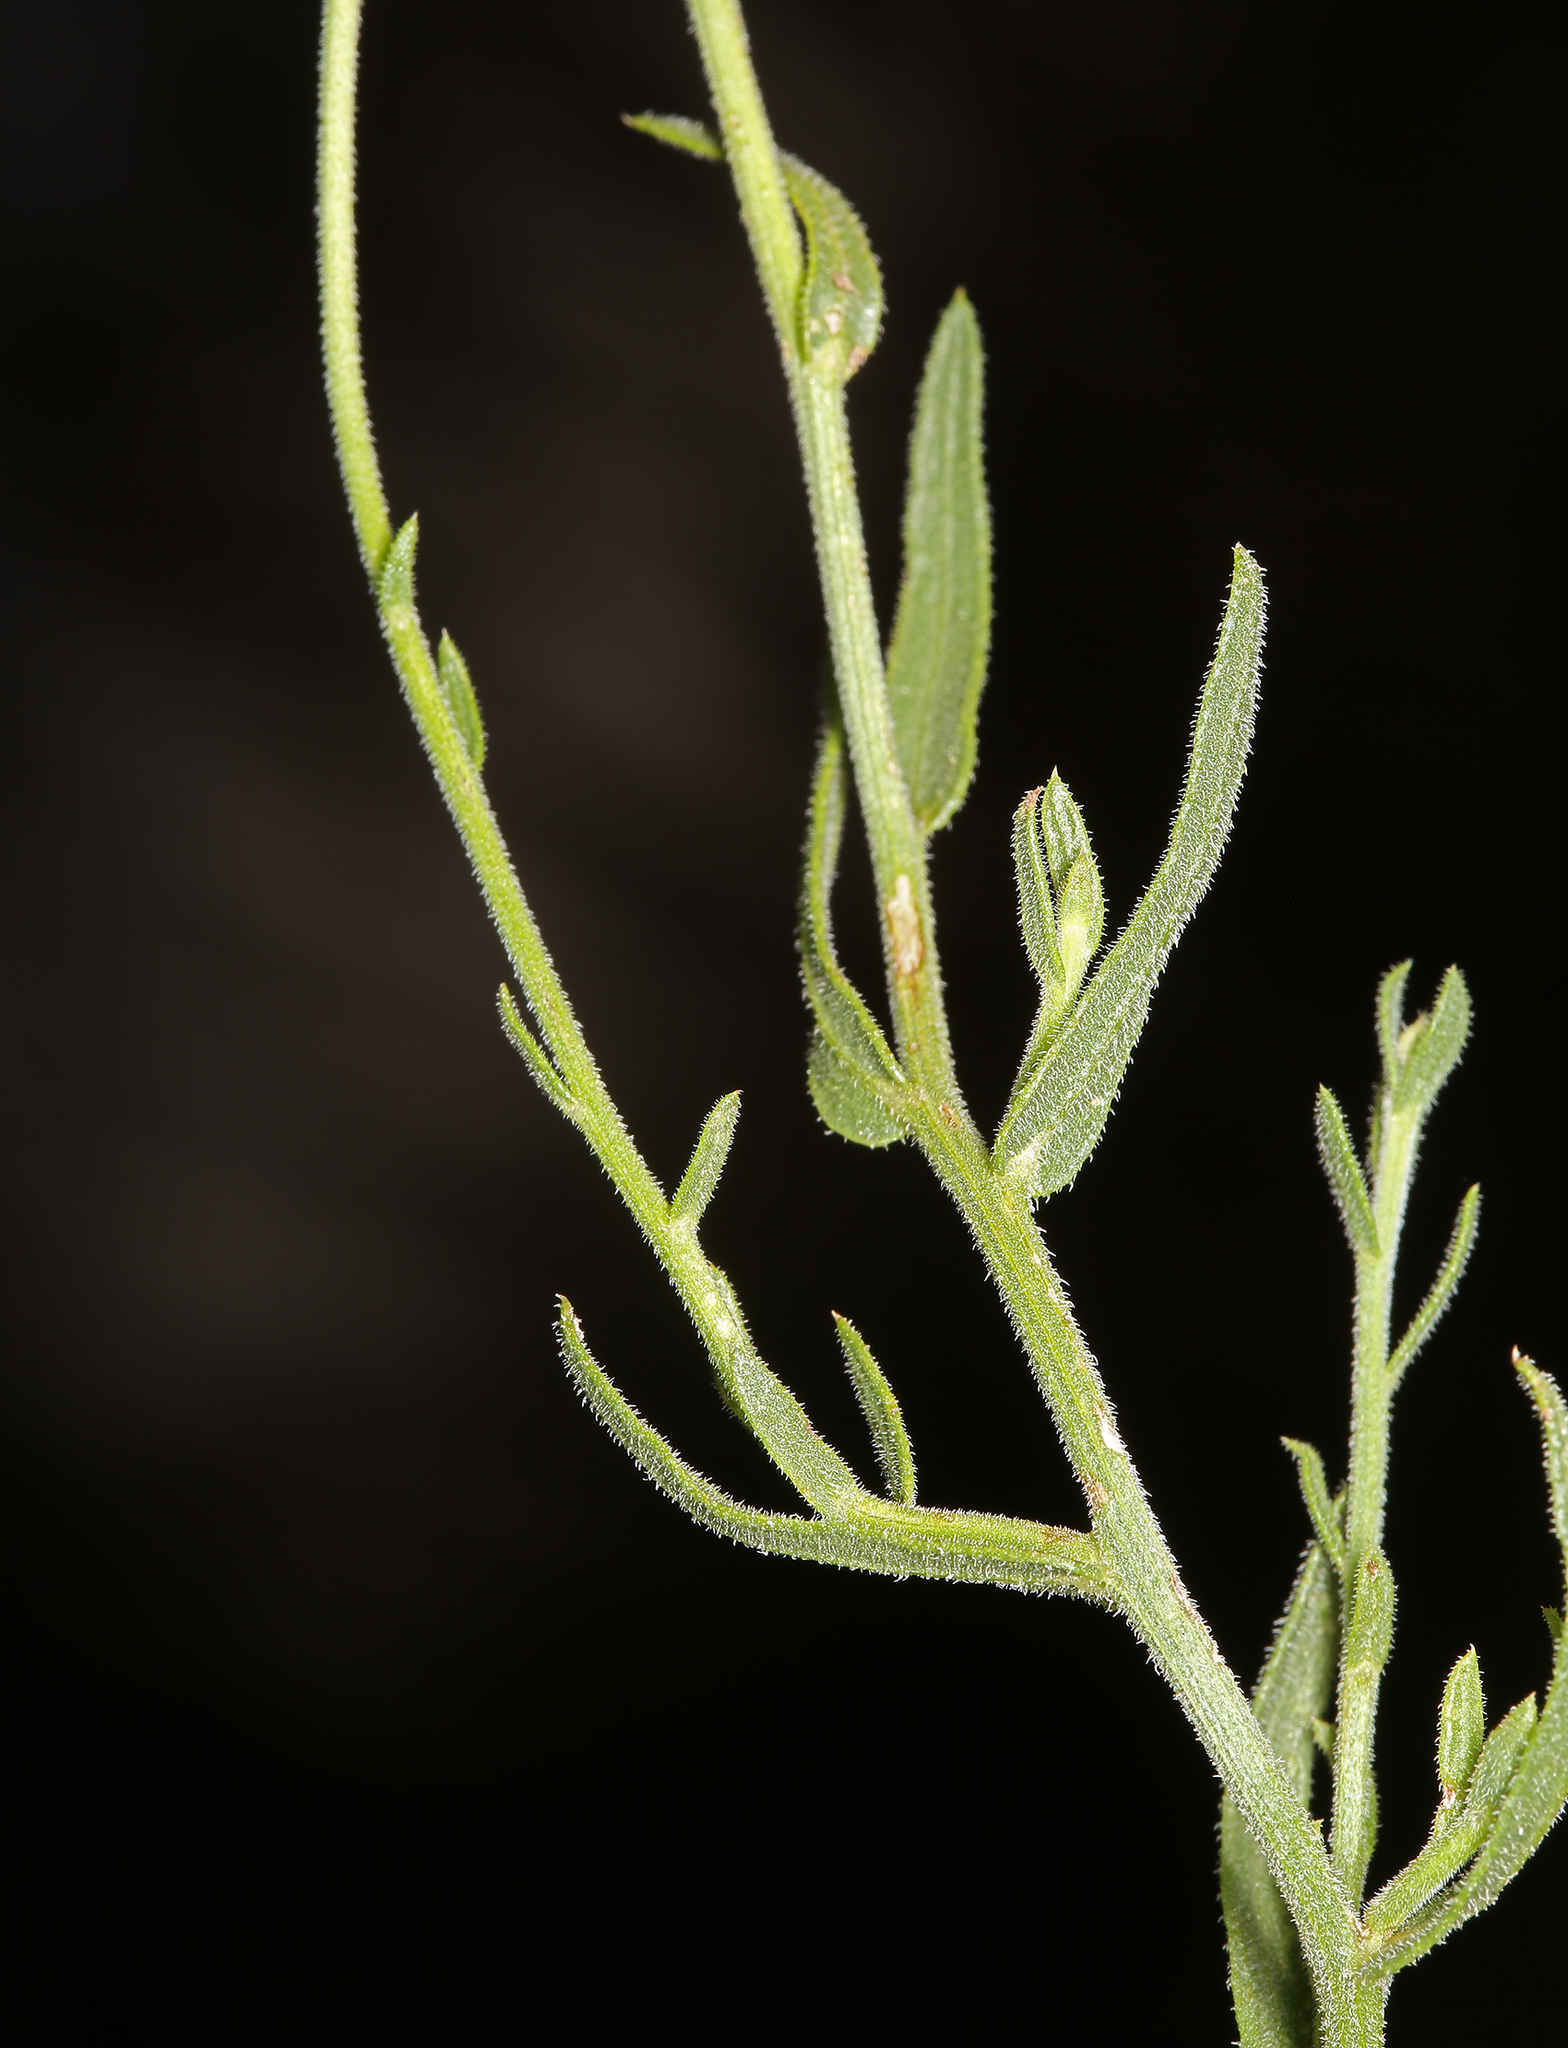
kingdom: Plantae
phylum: Tracheophyta
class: Magnoliopsida
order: Asterales
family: Asteraceae
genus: Erigeron
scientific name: Erigeron breweri
